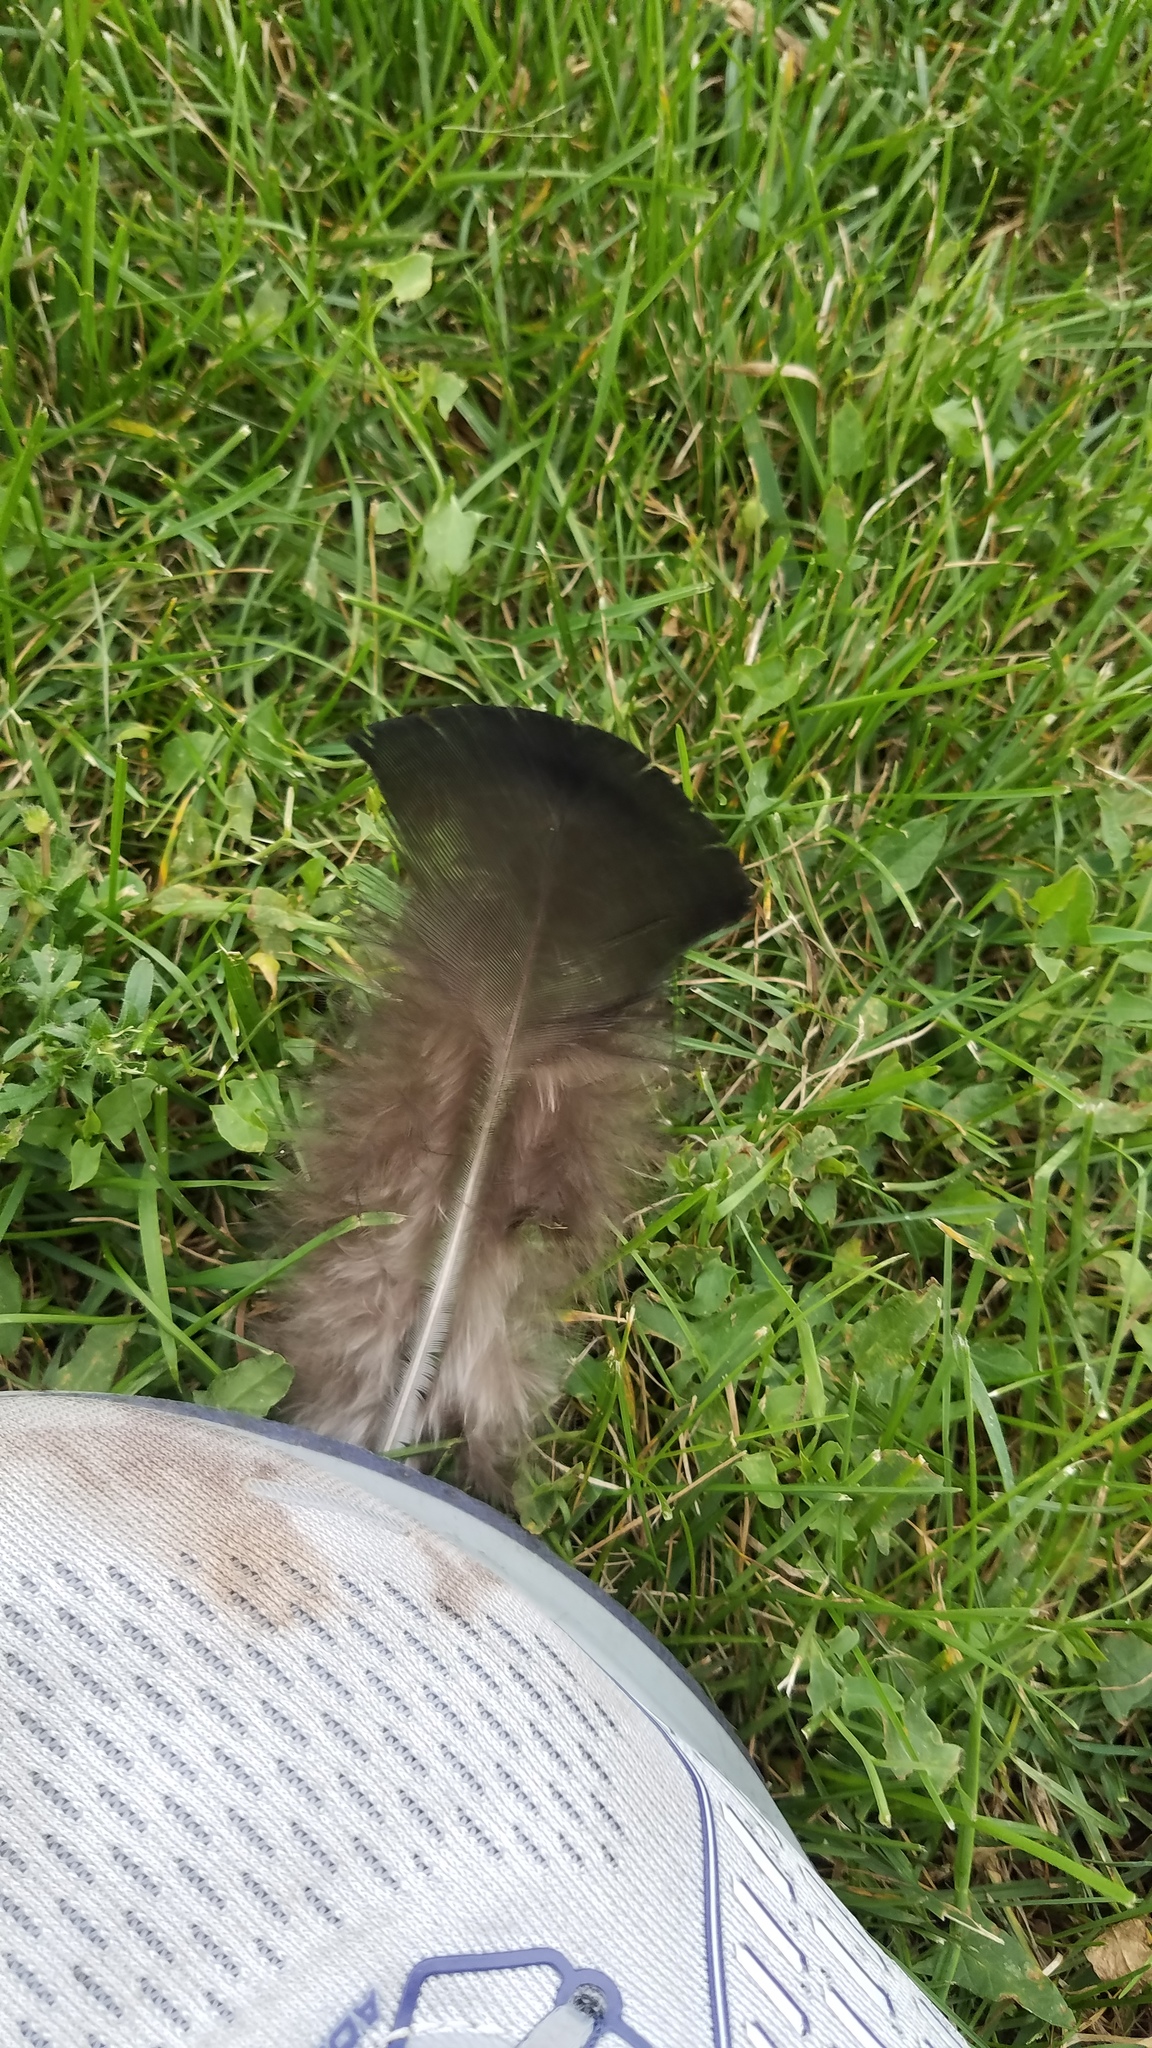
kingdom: Animalia
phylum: Chordata
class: Aves
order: Galliformes
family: Phasianidae
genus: Meleagris
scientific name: Meleagris gallopavo
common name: Wild turkey
